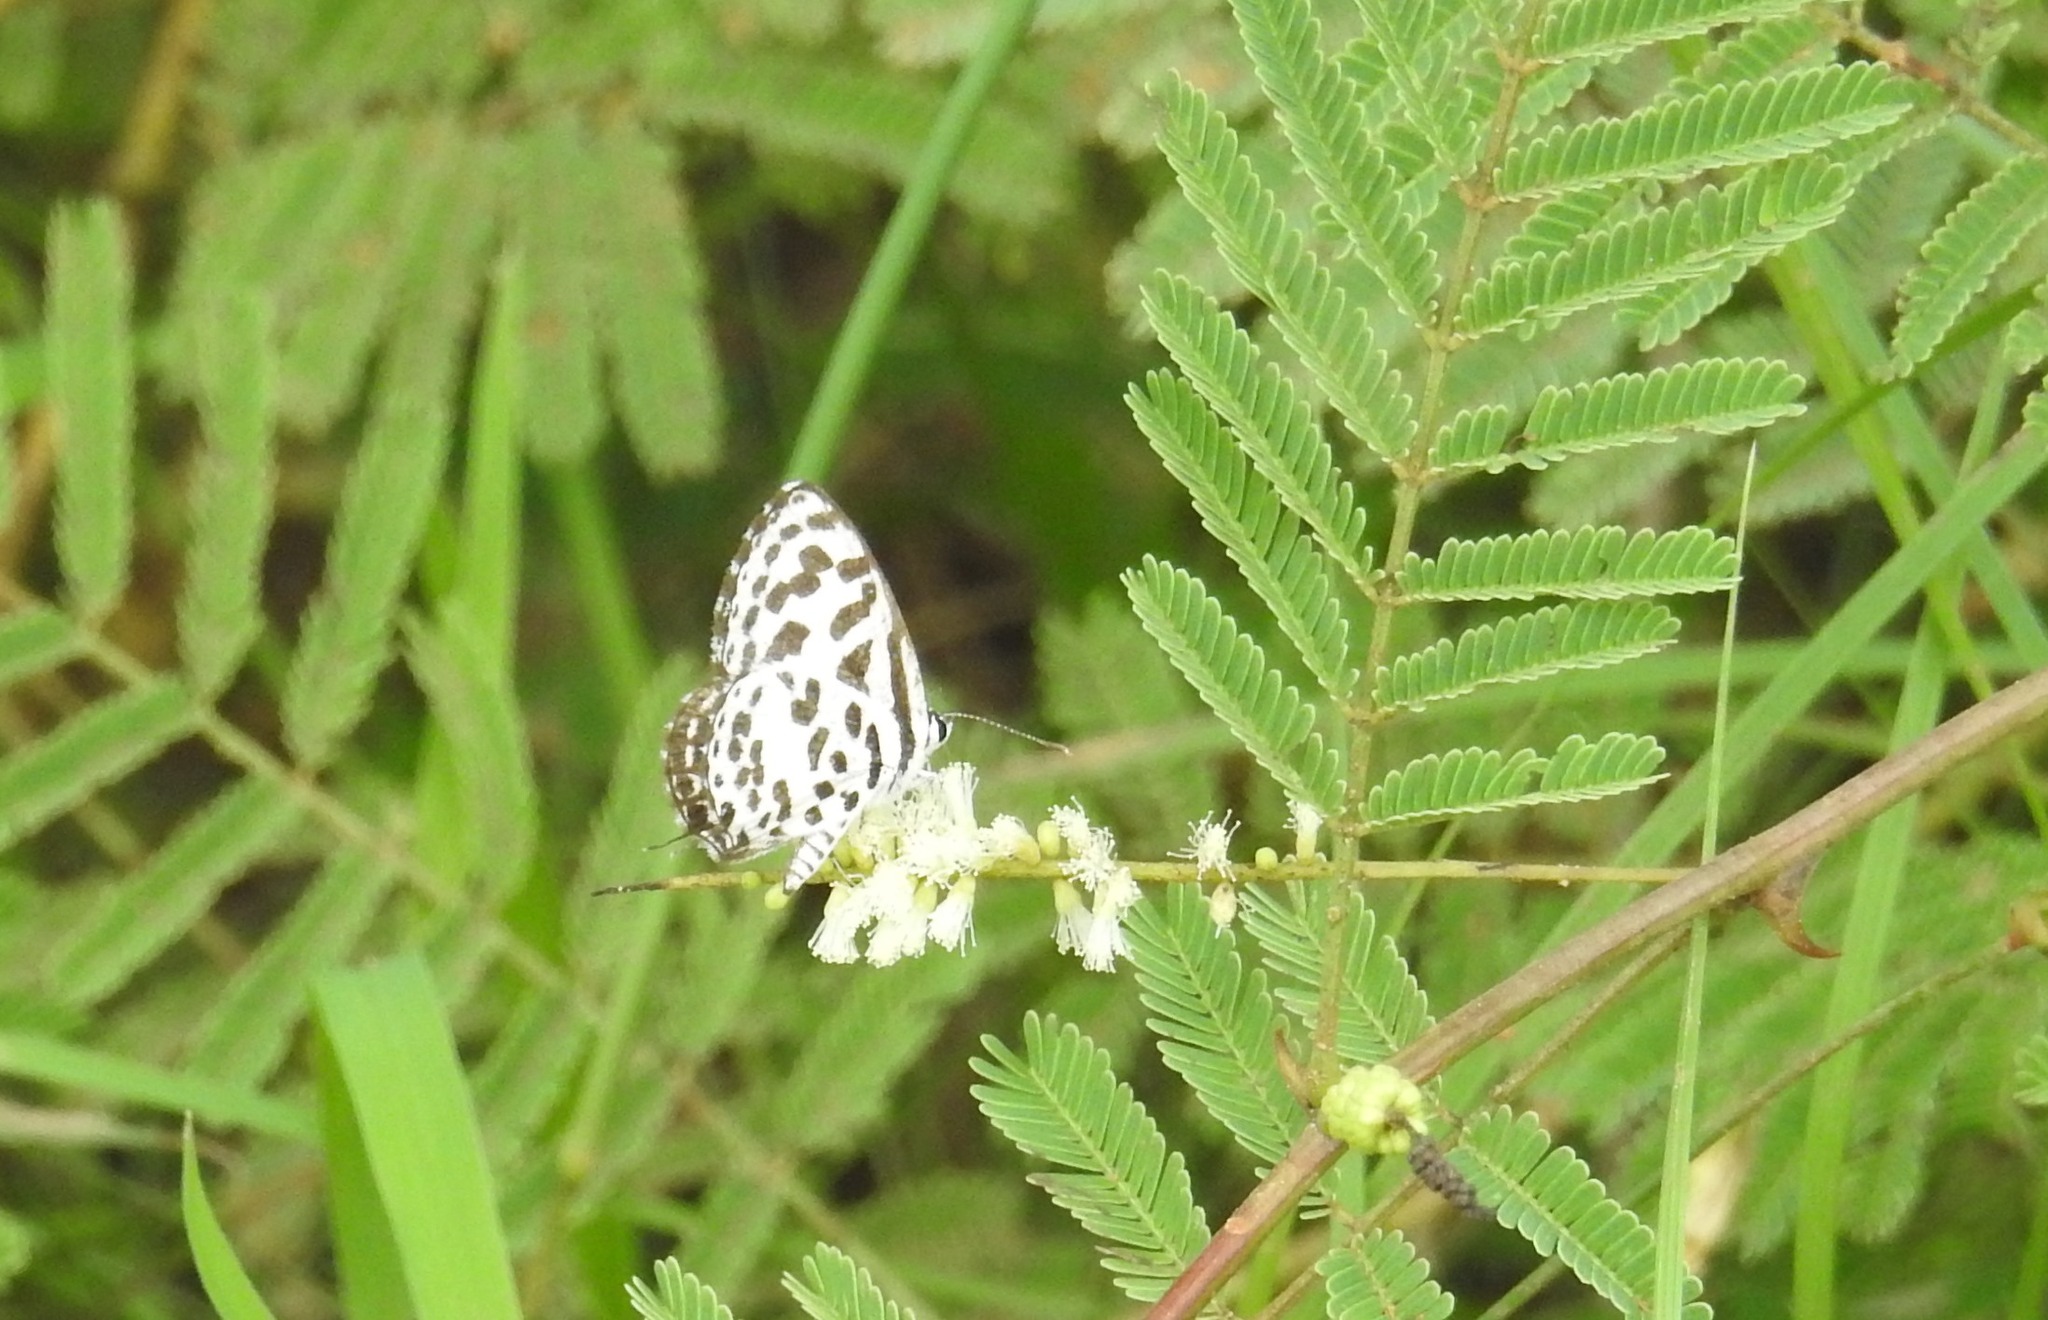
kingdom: Animalia
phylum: Arthropoda
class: Insecta
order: Lepidoptera
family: Lycaenidae
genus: Castalius
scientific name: Castalius rosimon
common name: Common pierrot
